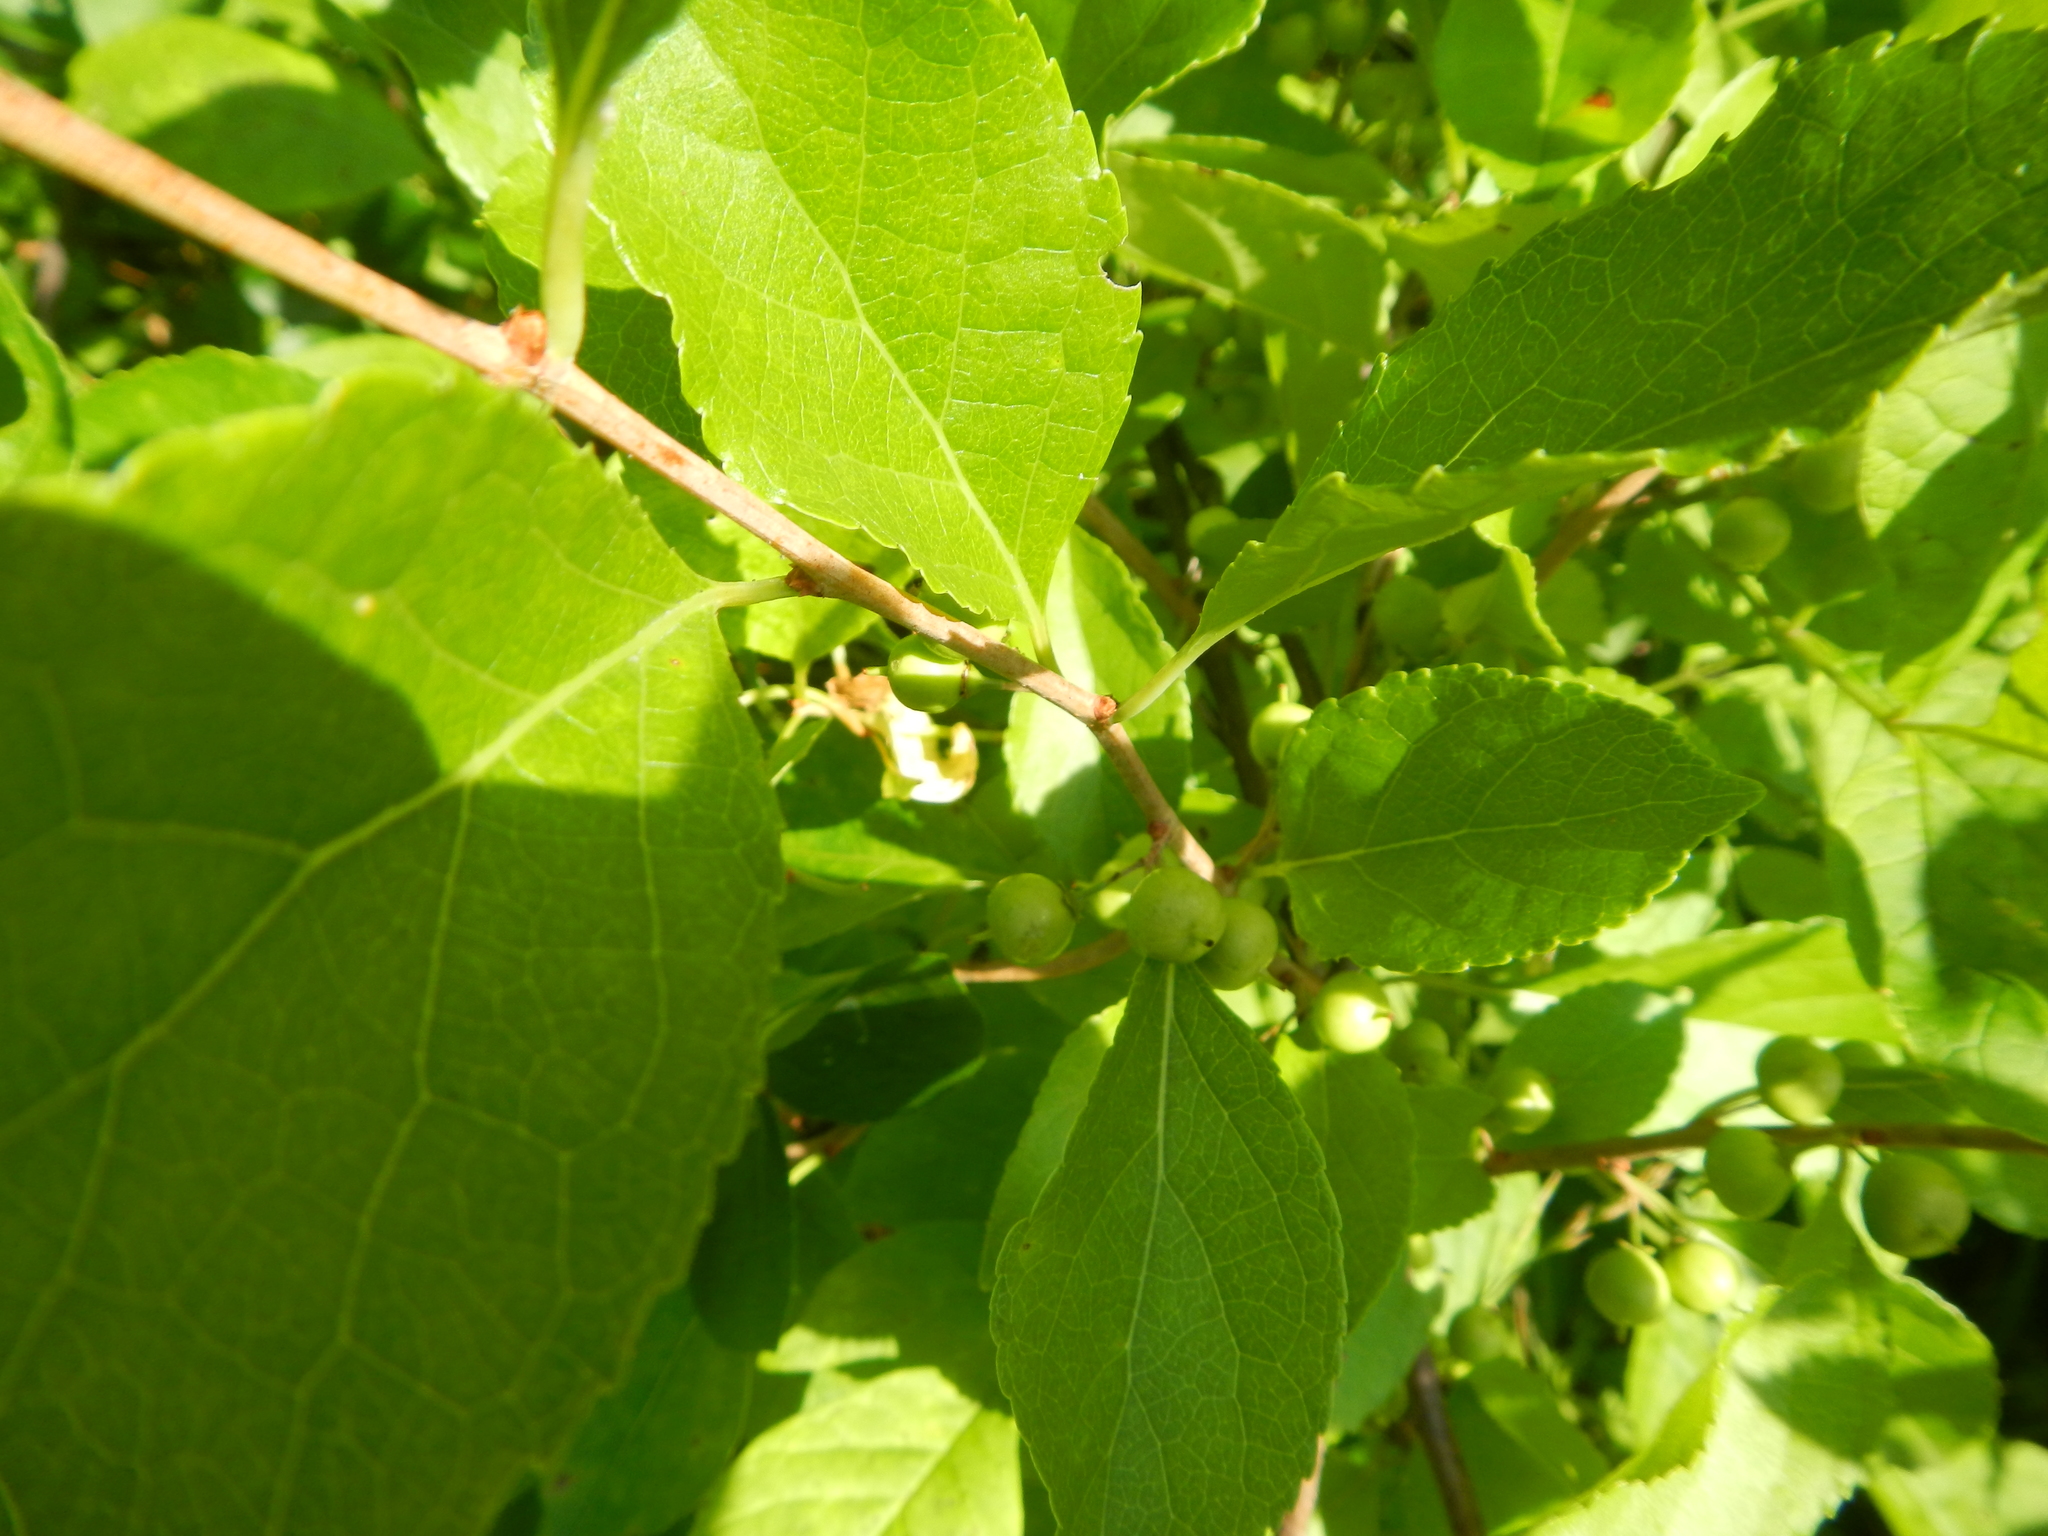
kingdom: Plantae
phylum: Tracheophyta
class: Magnoliopsida
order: Celastrales
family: Celastraceae
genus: Celastrus
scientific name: Celastrus orbiculatus
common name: Oriental bittersweet
